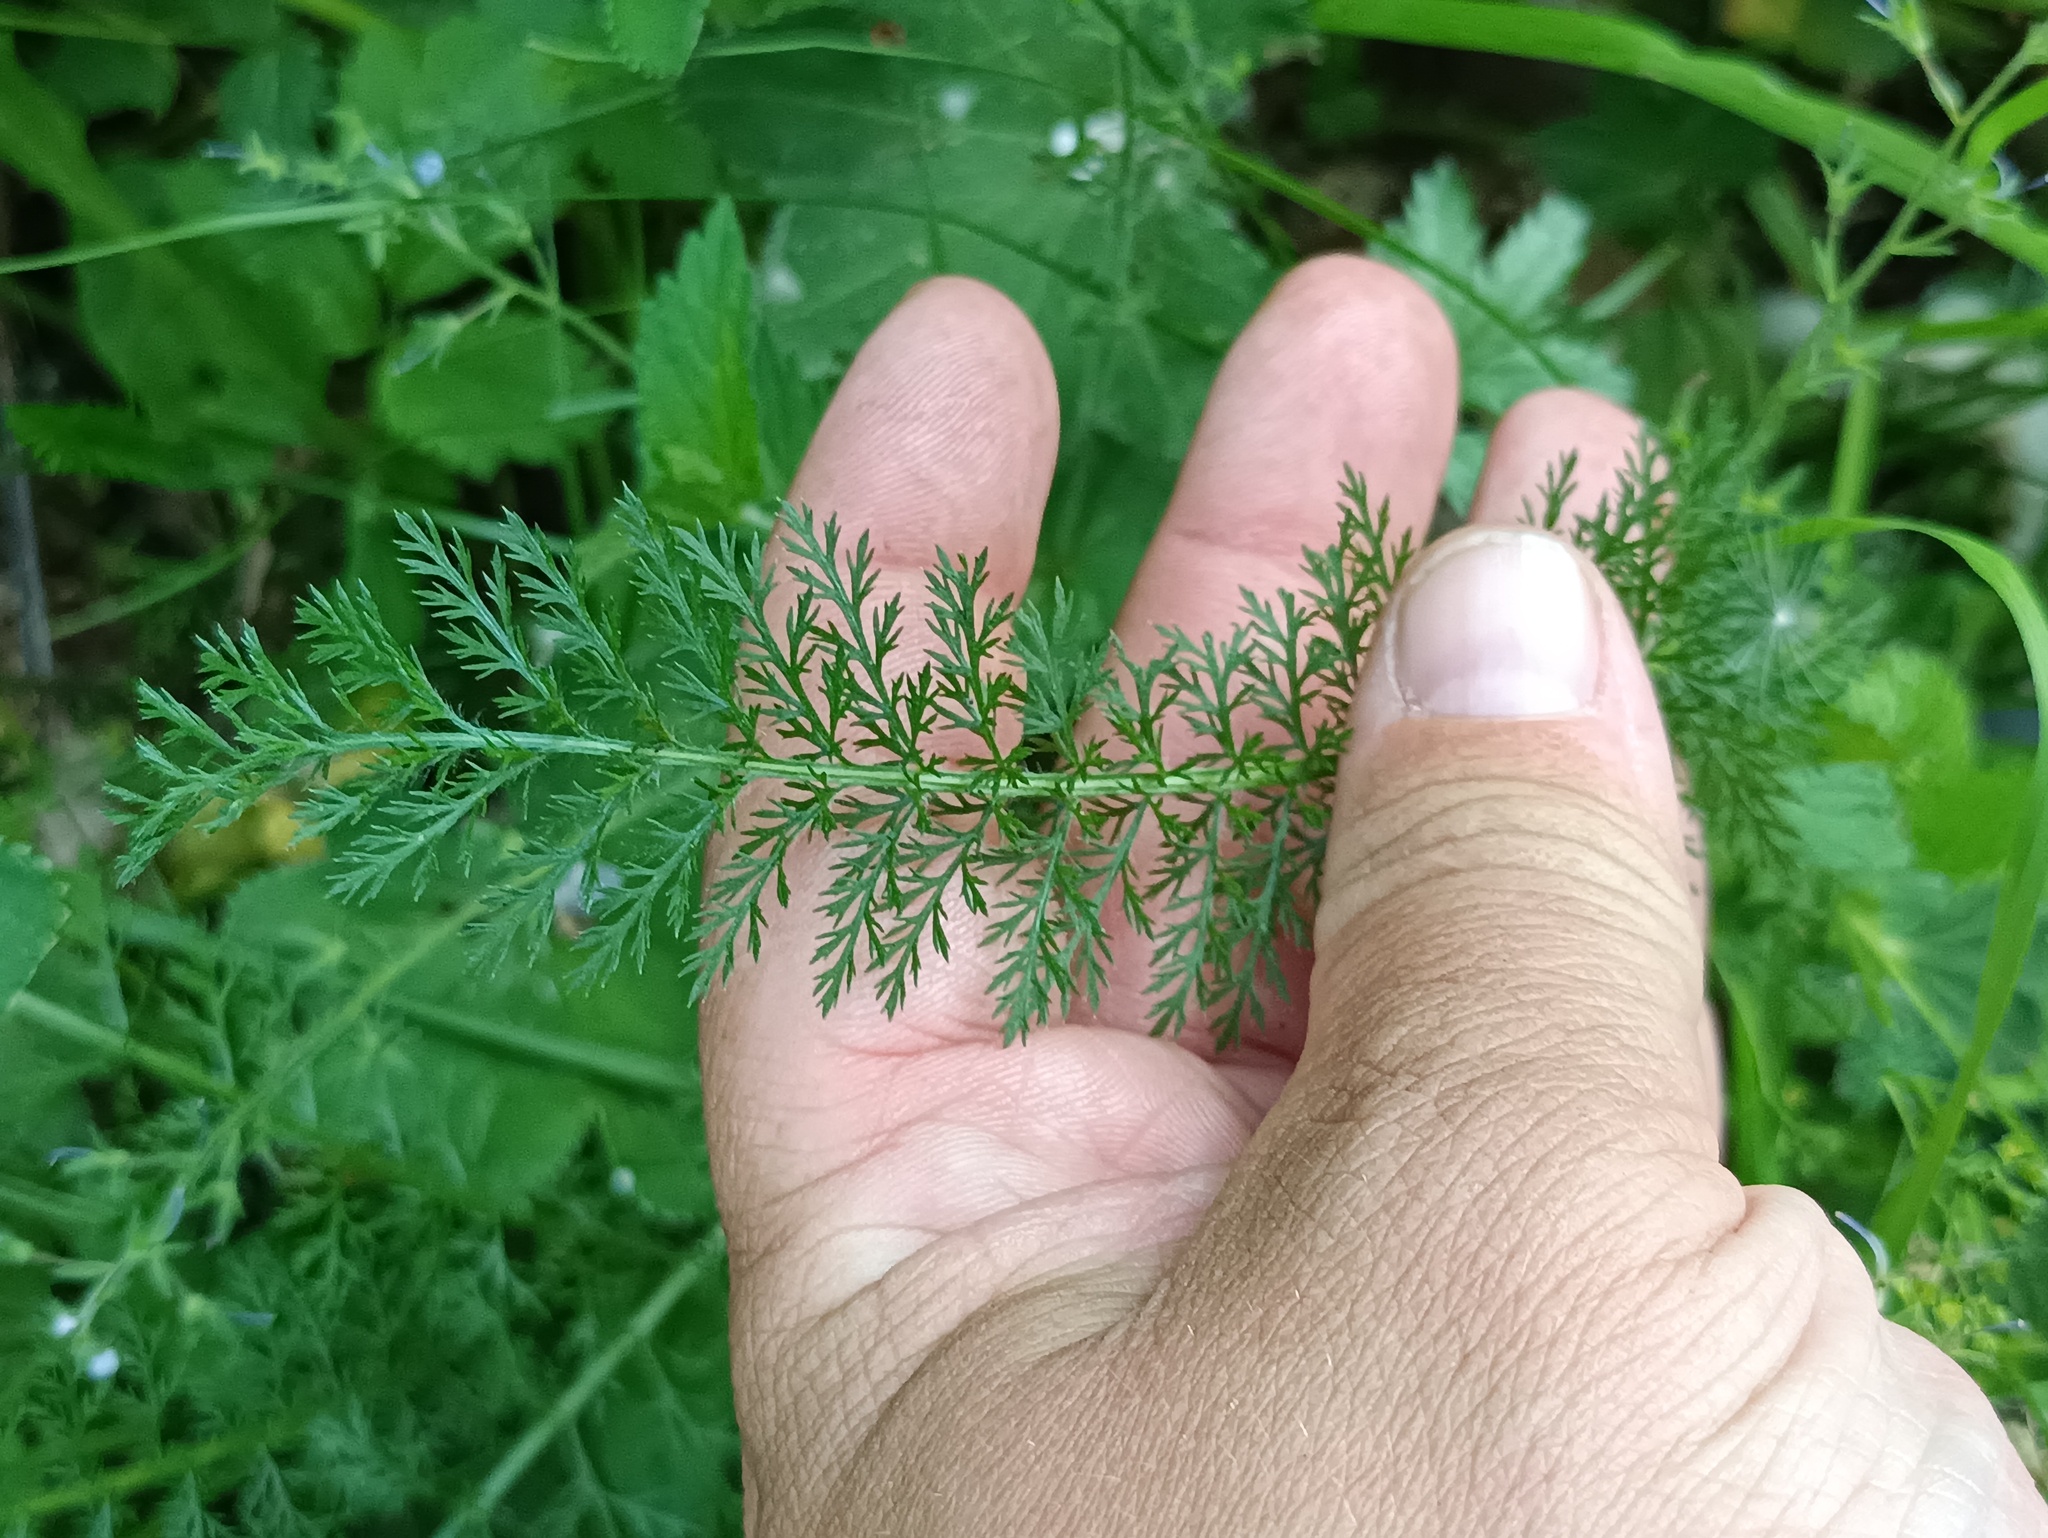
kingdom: Plantae
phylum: Tracheophyta
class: Magnoliopsida
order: Asterales
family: Asteraceae
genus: Achillea
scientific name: Achillea millefolium
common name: Yarrow
